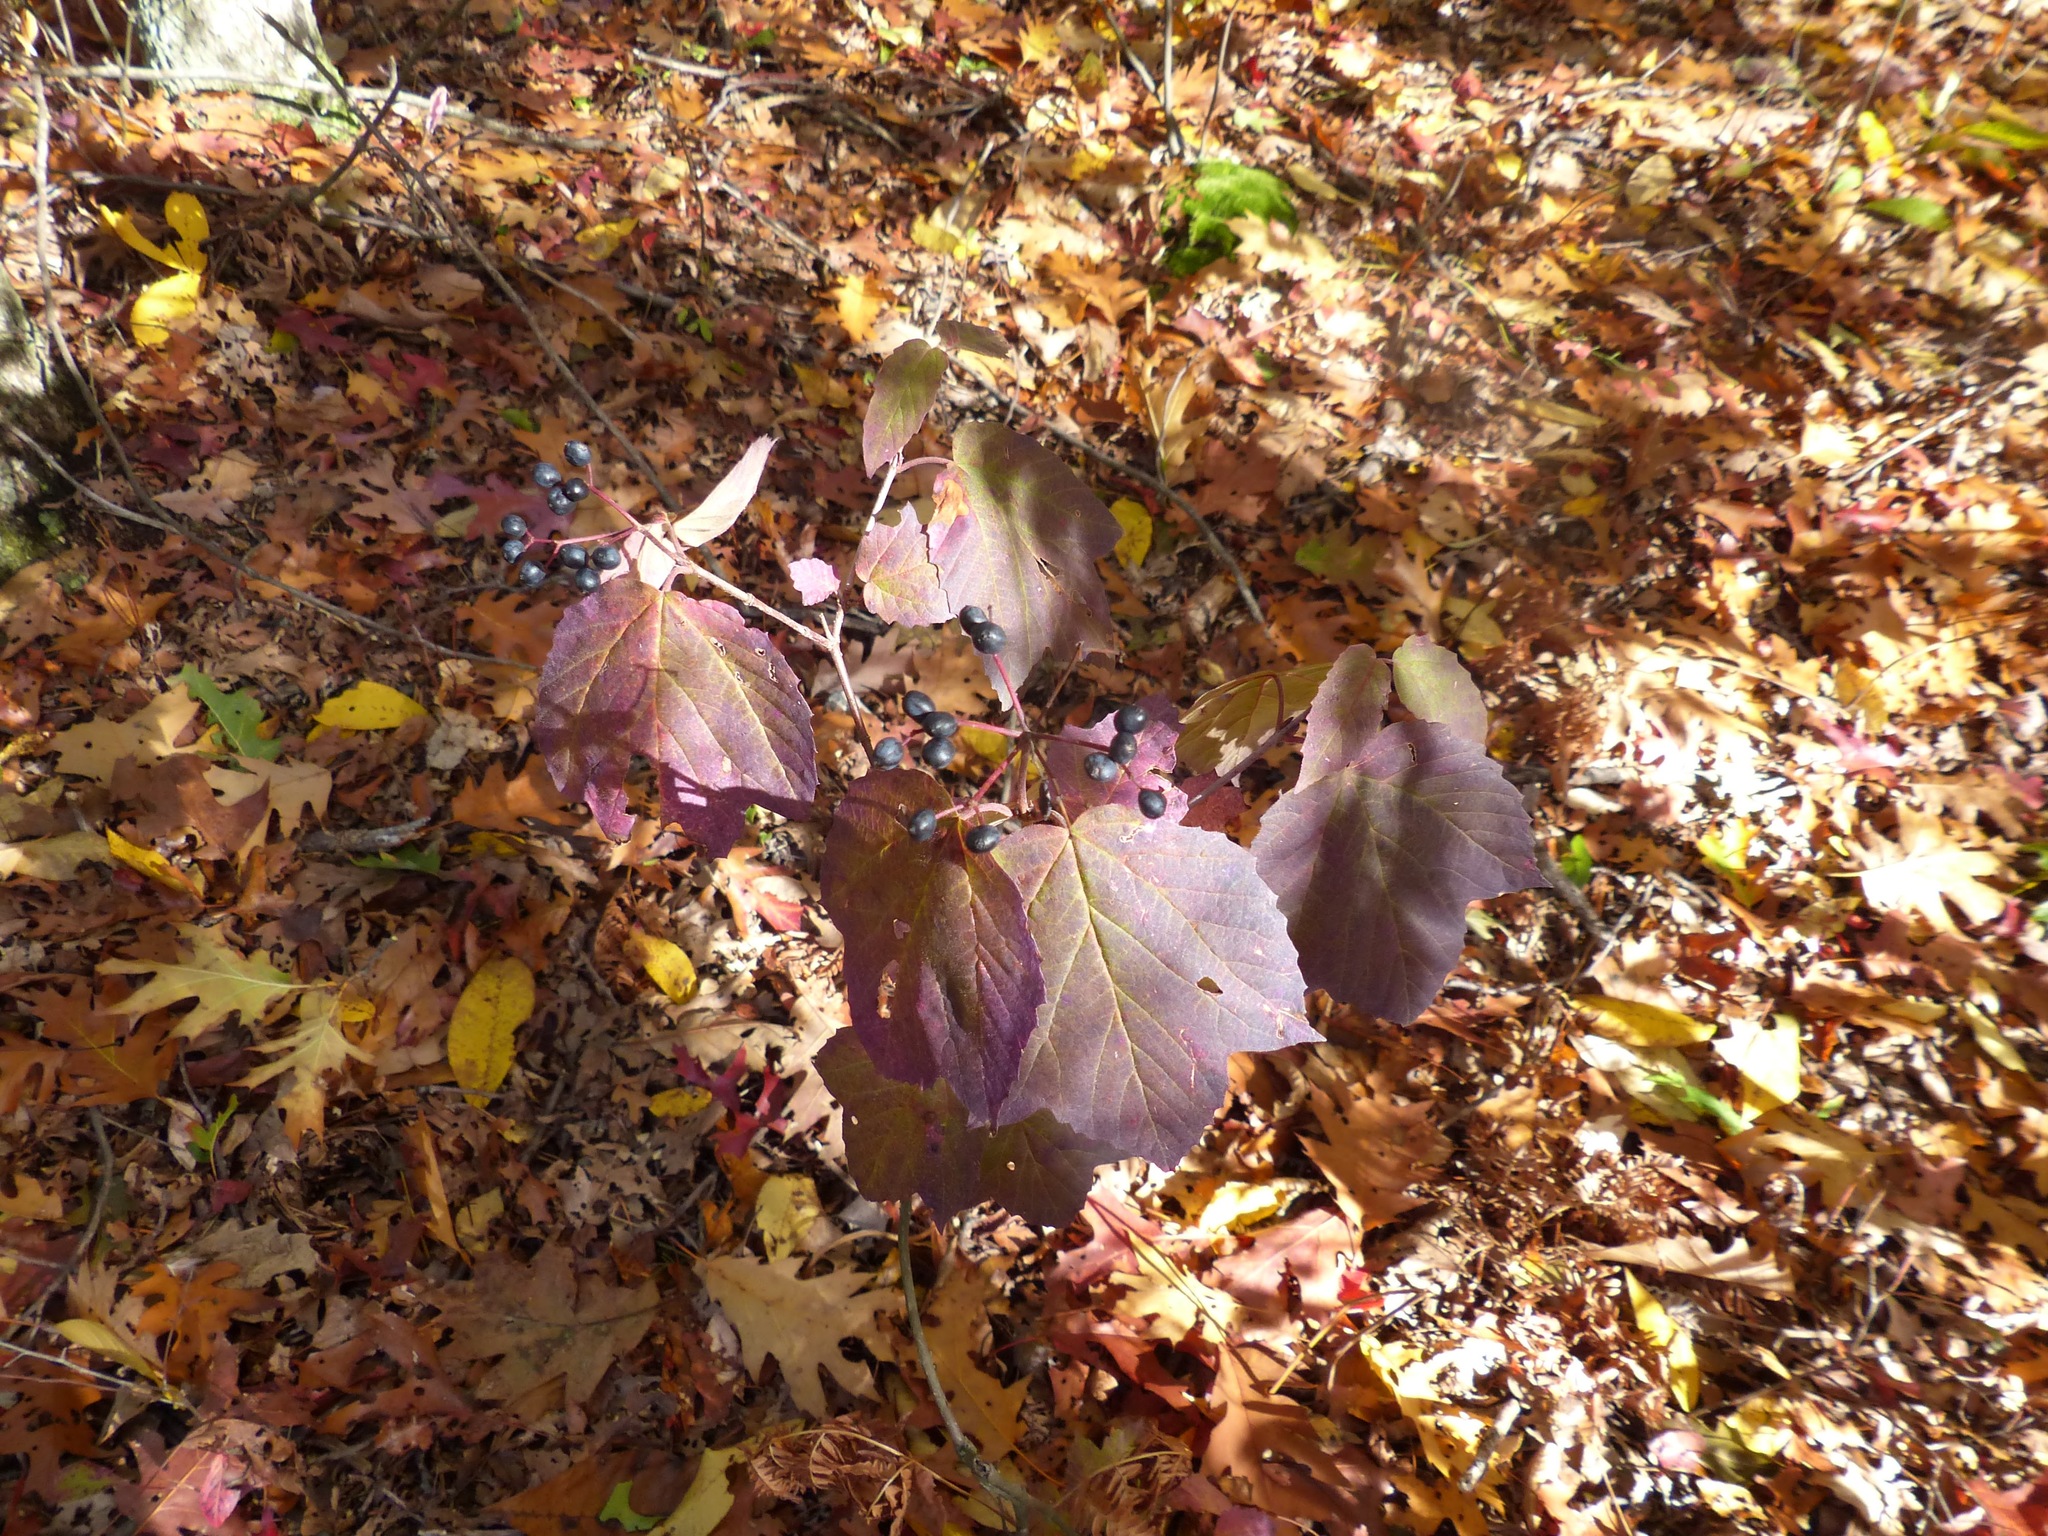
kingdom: Plantae
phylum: Tracheophyta
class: Magnoliopsida
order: Dipsacales
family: Viburnaceae
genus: Viburnum
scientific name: Viburnum acerifolium
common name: Dockmackie
